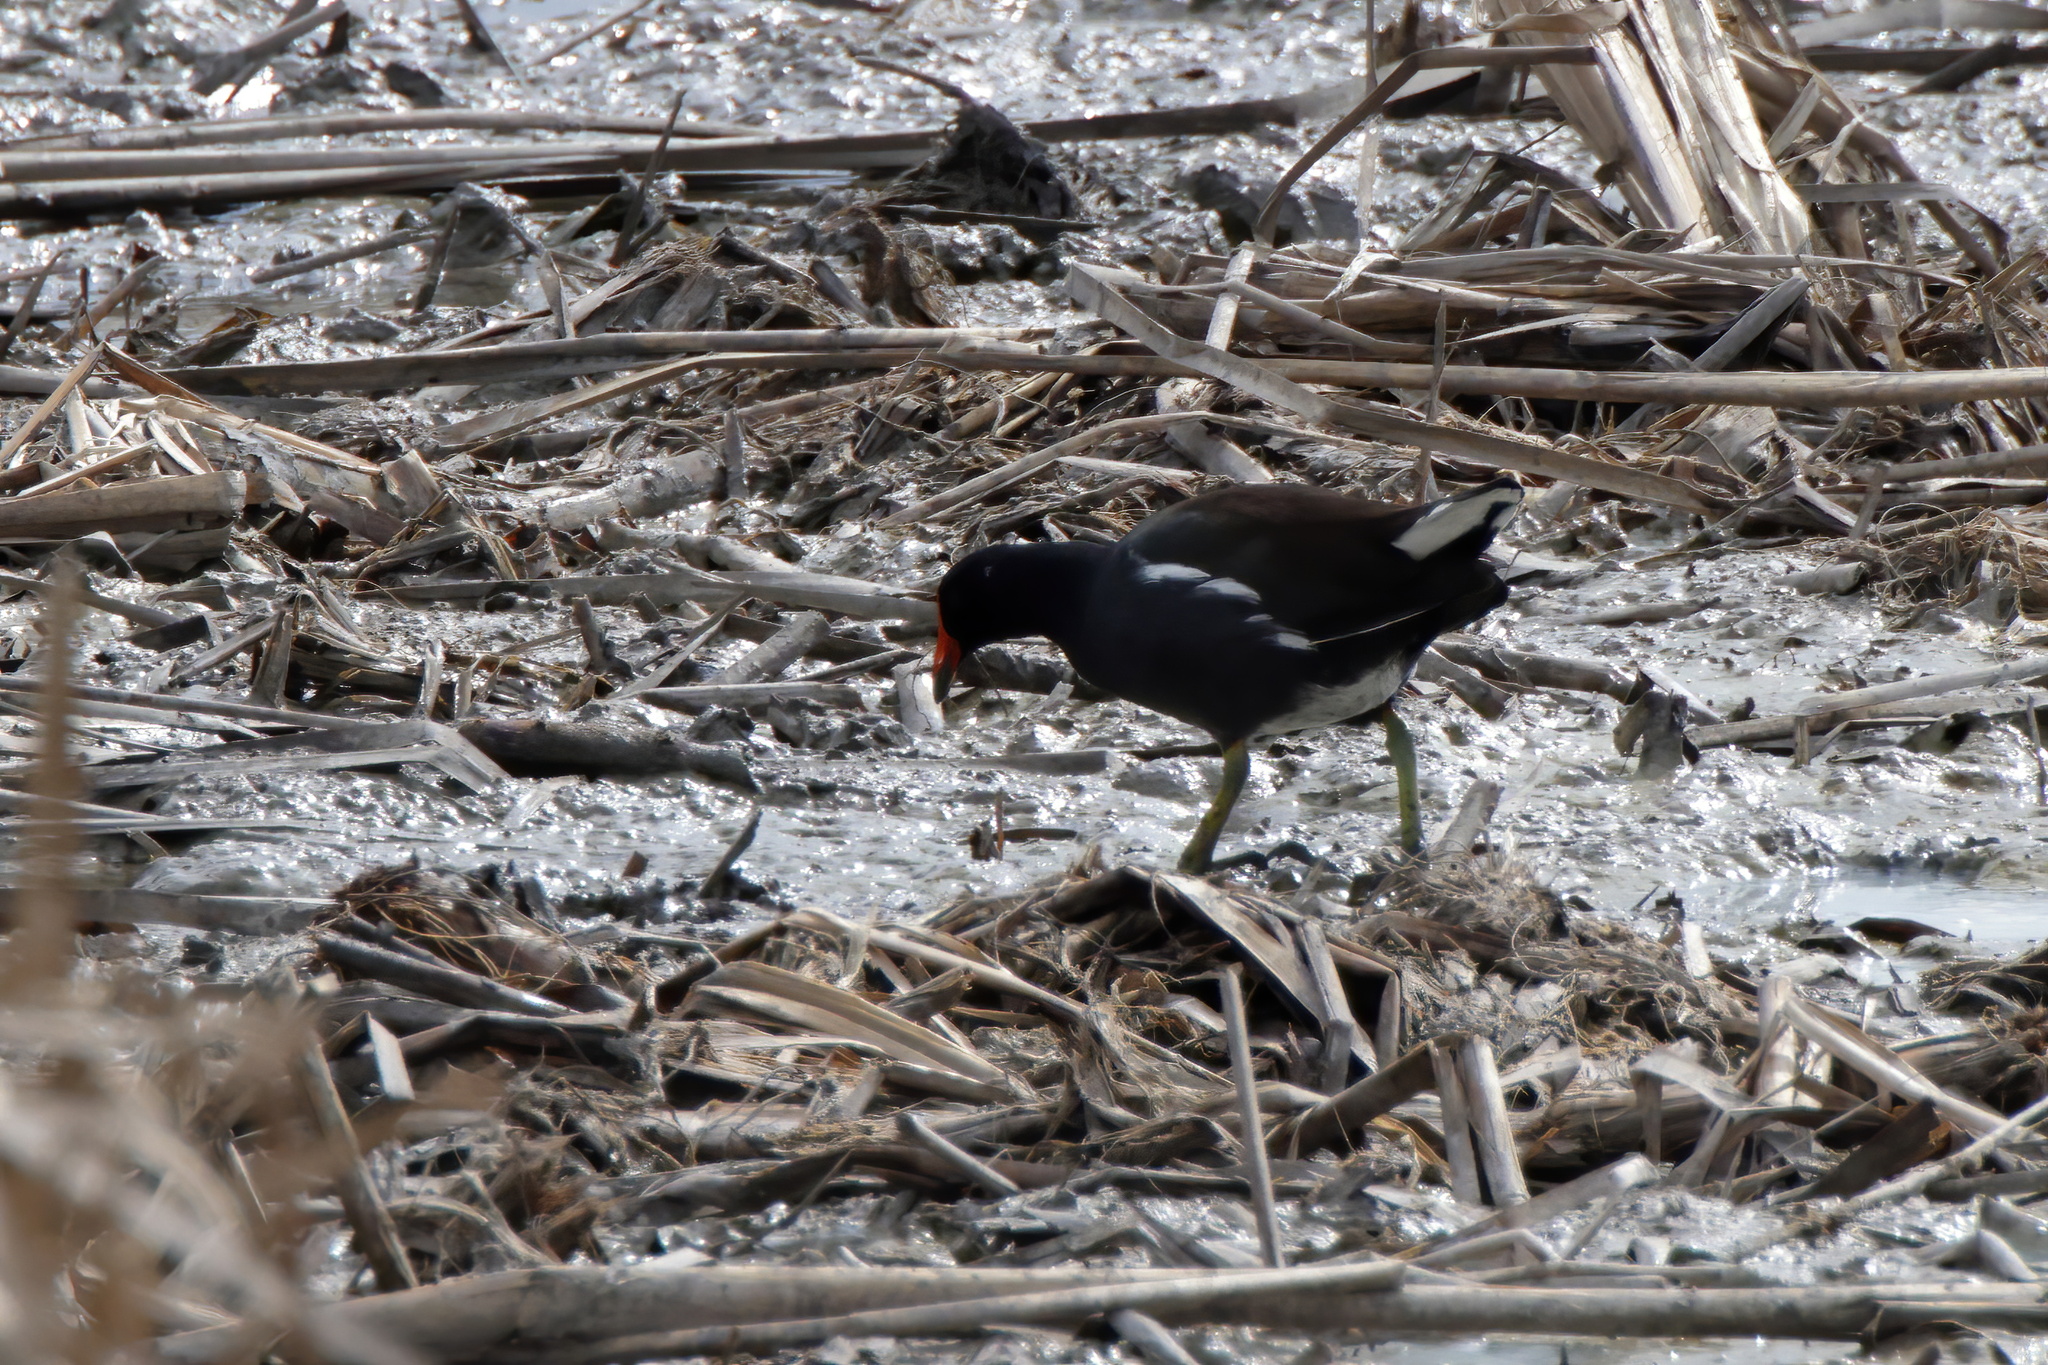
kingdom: Animalia
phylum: Chordata
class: Aves
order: Gruiformes
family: Rallidae
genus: Gallinula
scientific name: Gallinula chloropus
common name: Common moorhen
